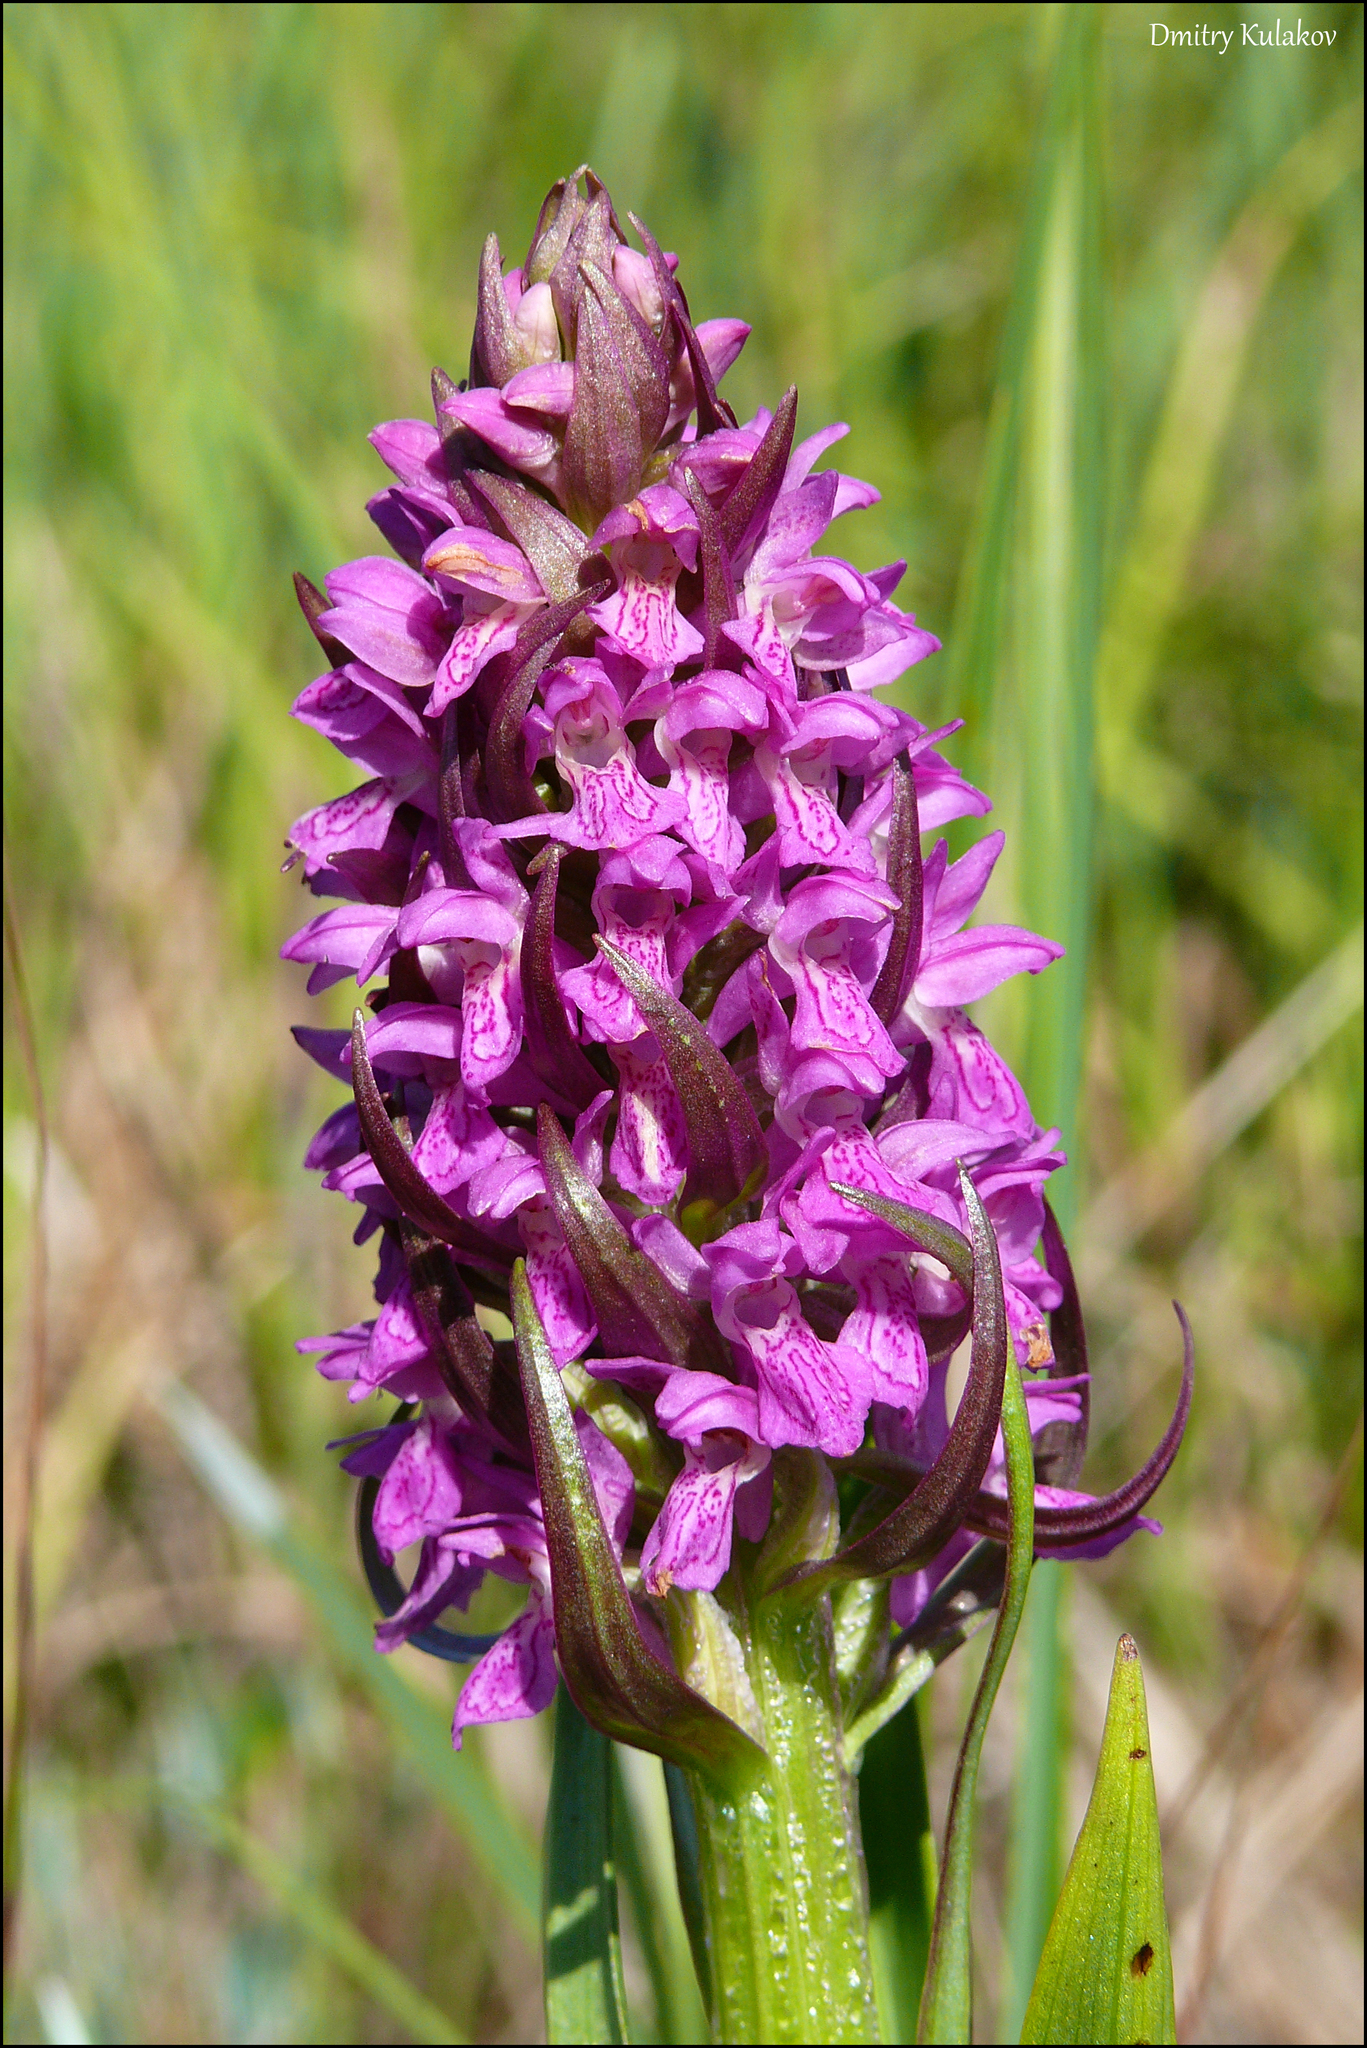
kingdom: Plantae
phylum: Tracheophyta
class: Liliopsida
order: Asparagales
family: Orchidaceae
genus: Dactylorhiza
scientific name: Dactylorhiza incarnata
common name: Early marsh-orchid
